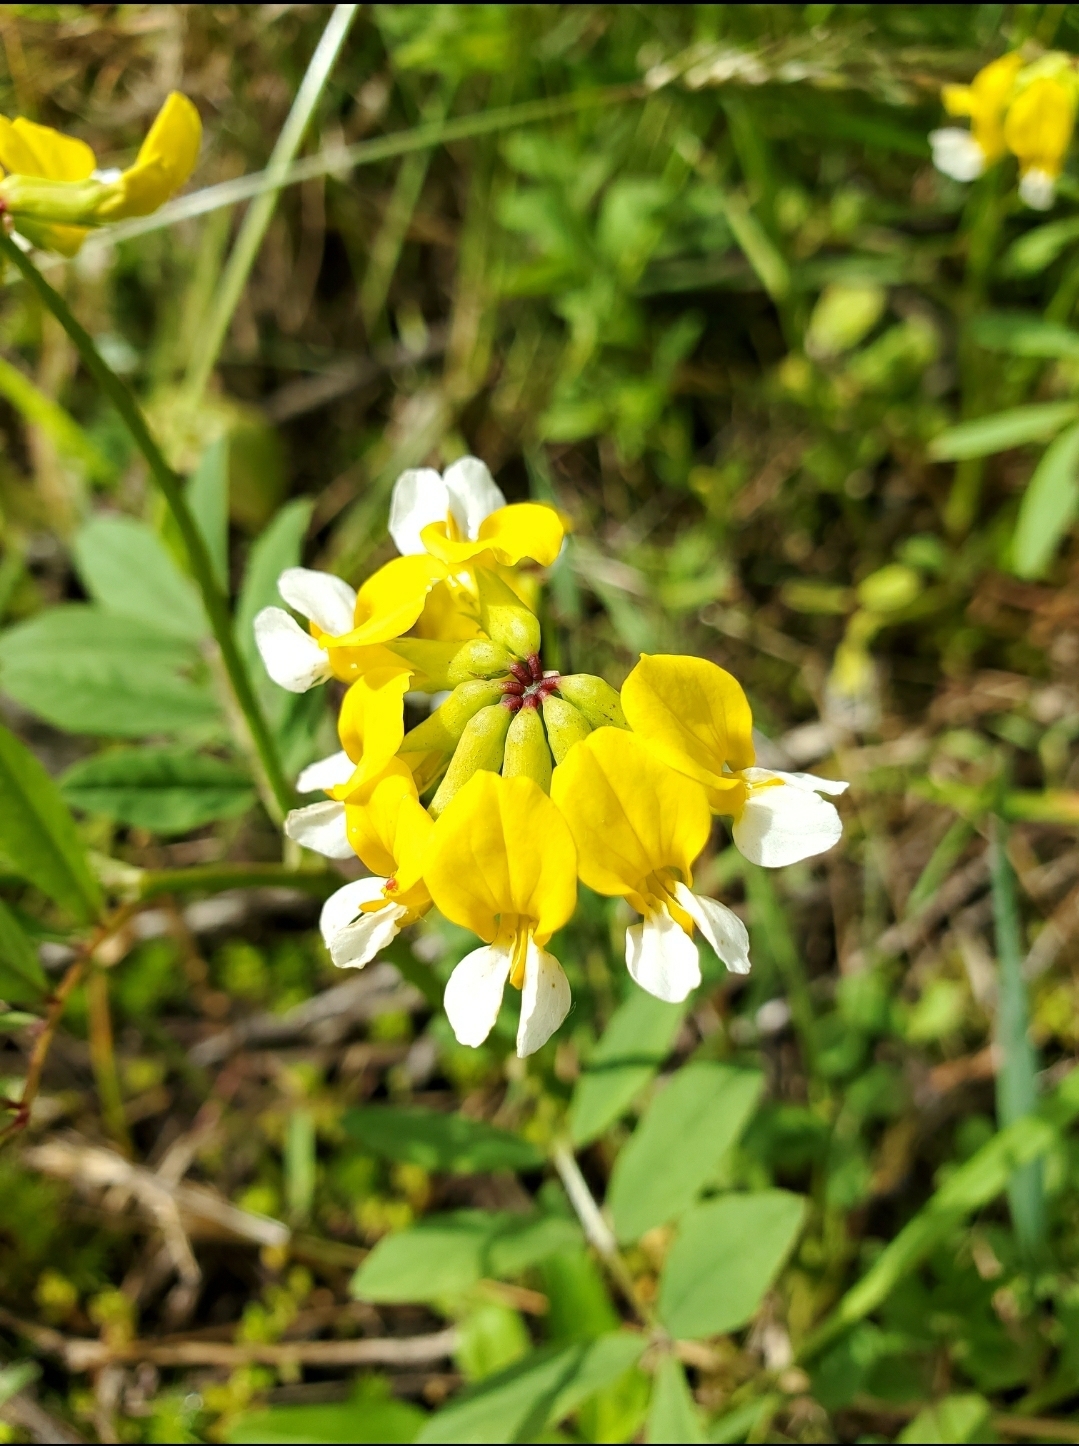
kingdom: Plantae
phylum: Tracheophyta
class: Magnoliopsida
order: Fabales
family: Fabaceae
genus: Hosackia
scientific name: Hosackia pinnata
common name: Bog bird's-foot trefoil
